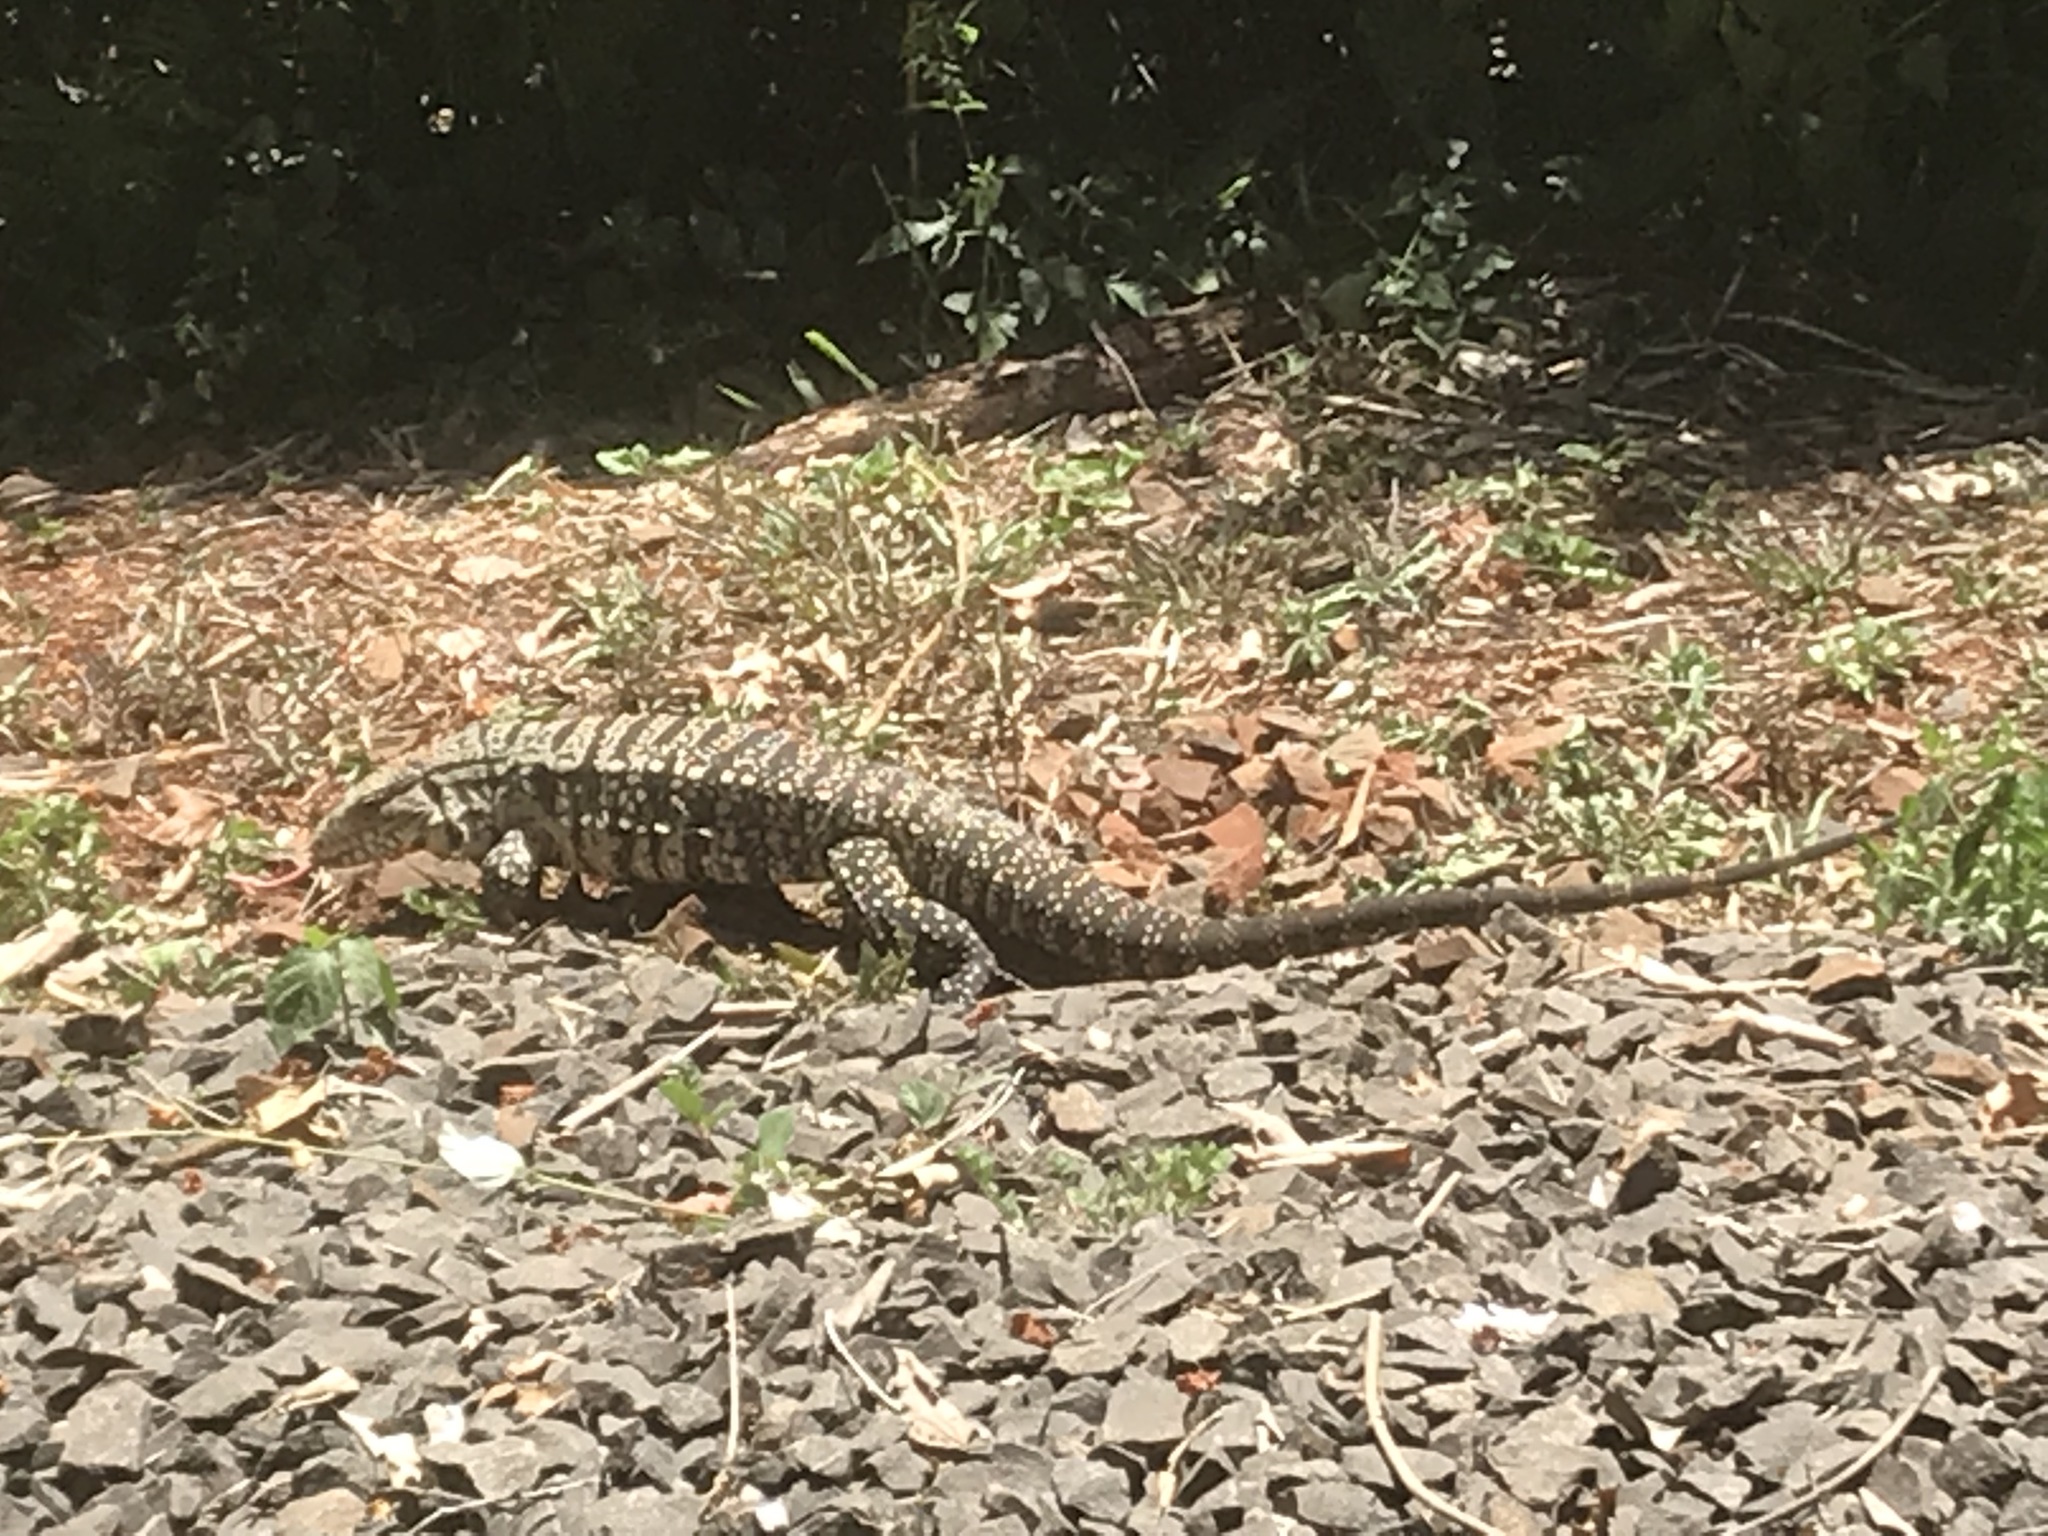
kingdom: Animalia
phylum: Chordata
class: Squamata
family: Teiidae
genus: Salvator
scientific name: Salvator merianae
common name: Argentine black and white tegu
